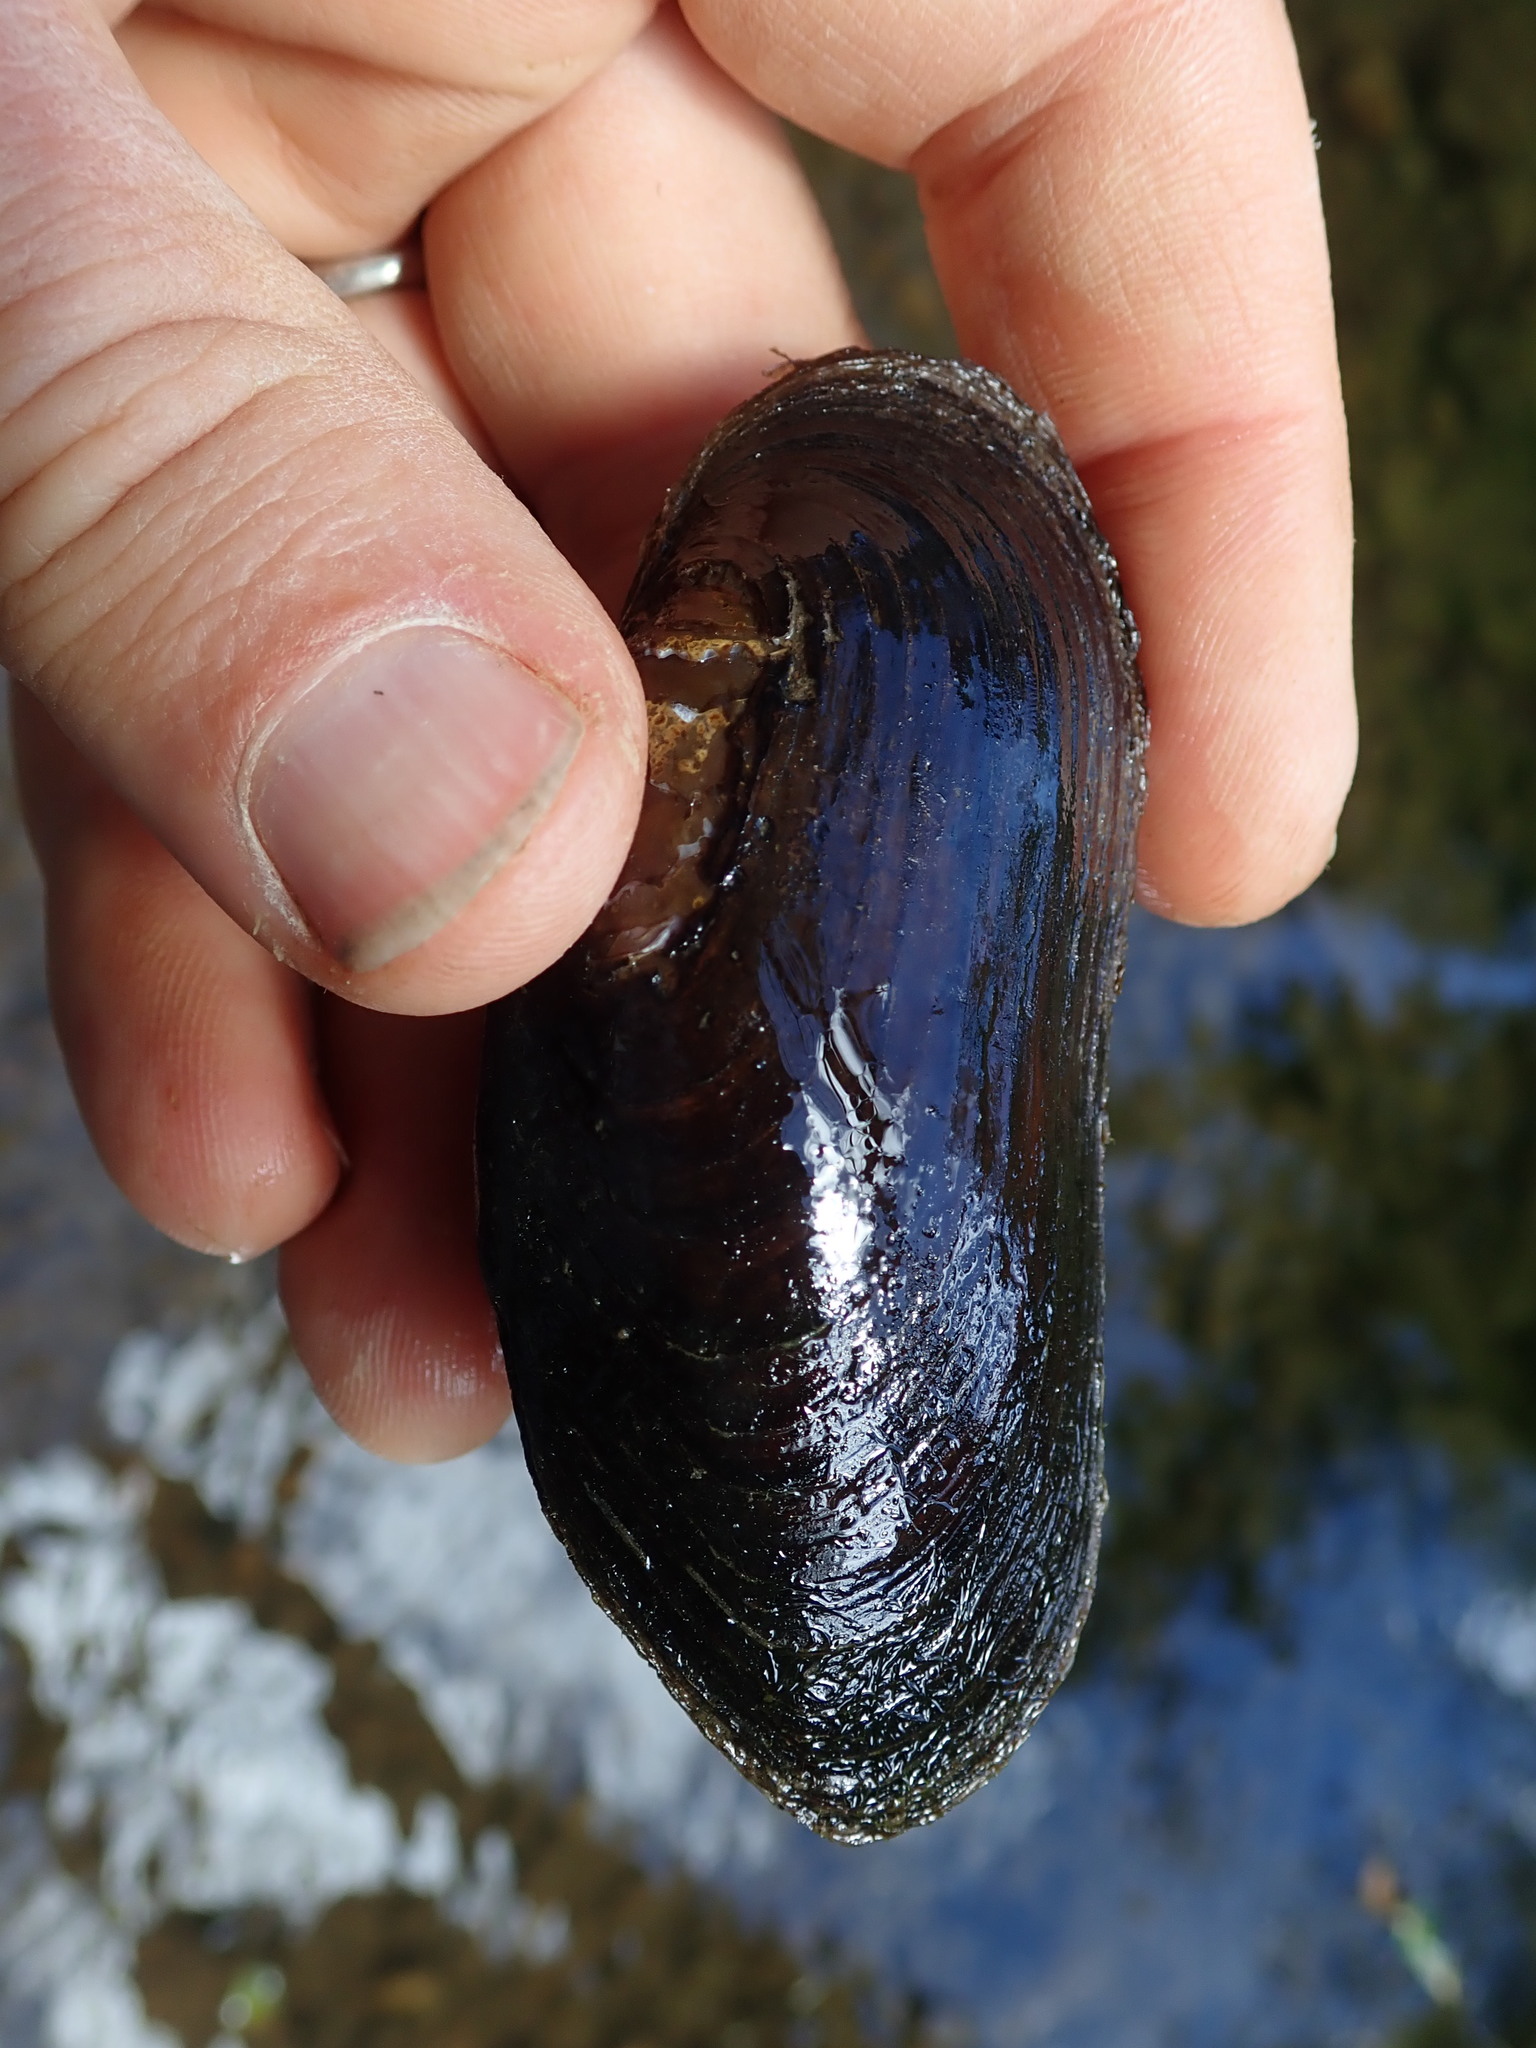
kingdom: Animalia
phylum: Mollusca
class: Bivalvia
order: Unionida
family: Margaritiferidae
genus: Margaritifera
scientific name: Margaritifera falcata
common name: Western pearlshell
